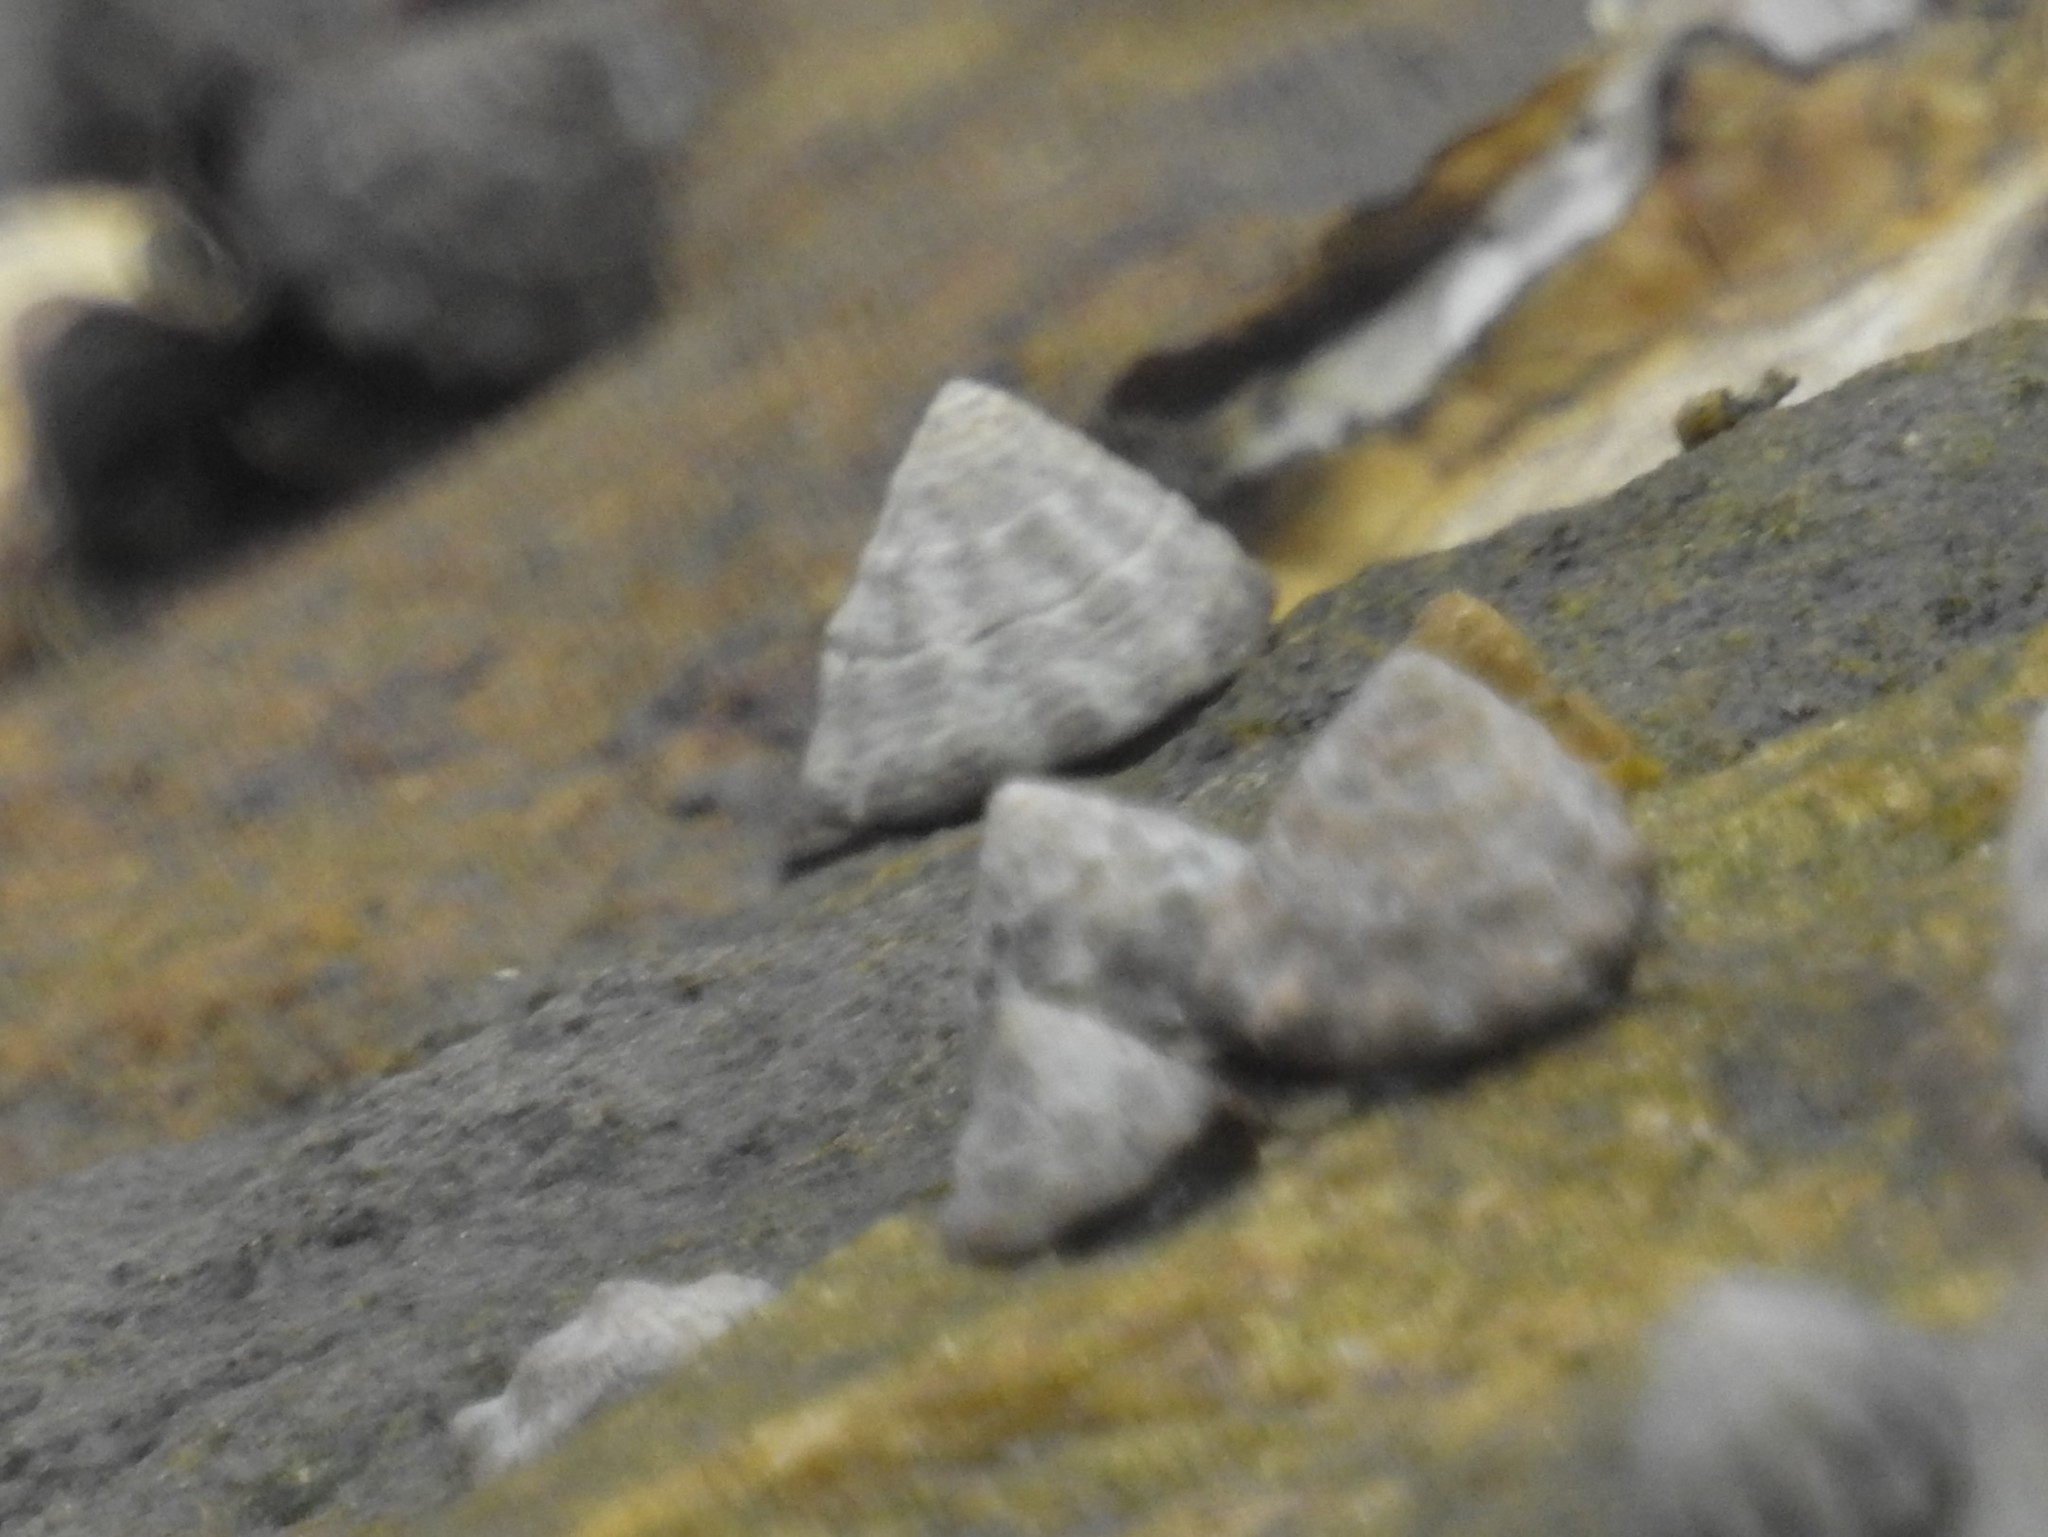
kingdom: Animalia
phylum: Mollusca
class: Gastropoda
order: Littorinimorpha
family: Littorinidae
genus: Bembicium
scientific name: Bembicium auratum
